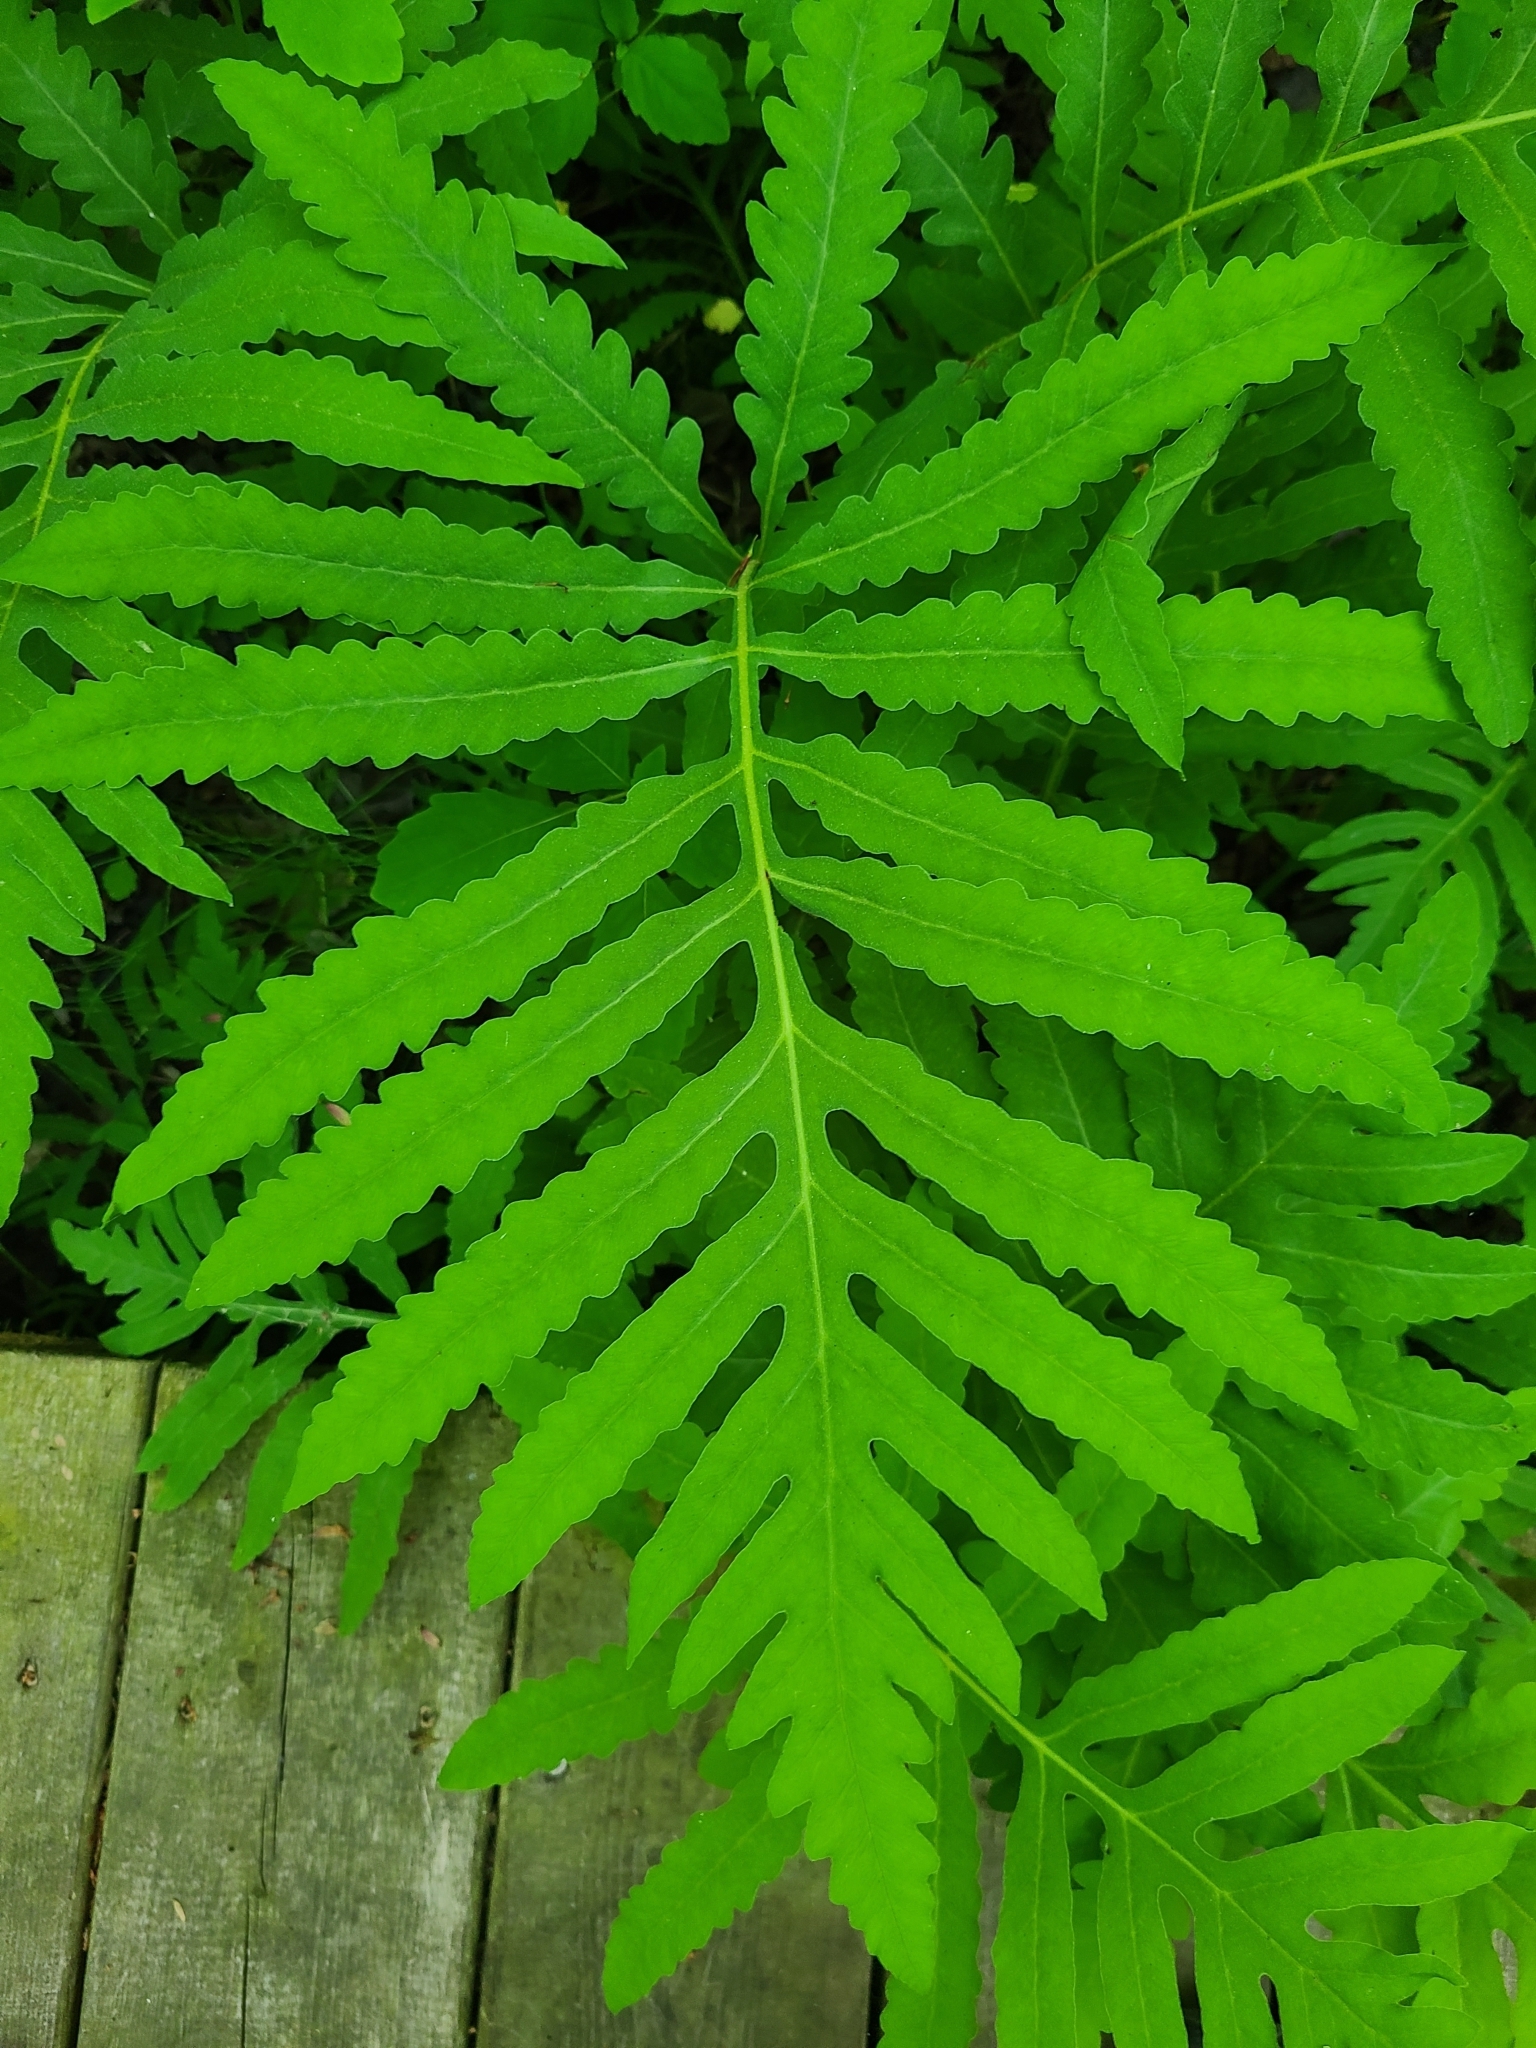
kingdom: Plantae
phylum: Tracheophyta
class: Polypodiopsida
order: Polypodiales
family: Onocleaceae
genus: Onoclea
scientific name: Onoclea sensibilis
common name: Sensitive fern
